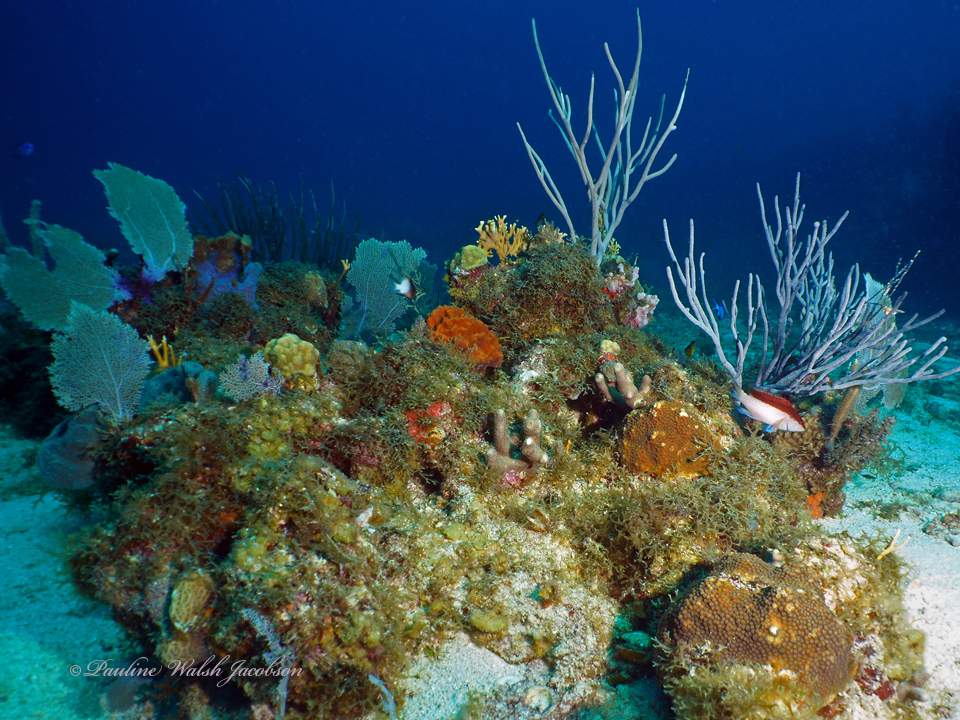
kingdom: Animalia
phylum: Chordata
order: Perciformes
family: Serranidae
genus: Cephalopholis
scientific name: Cephalopholis fulva
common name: Butterfish
